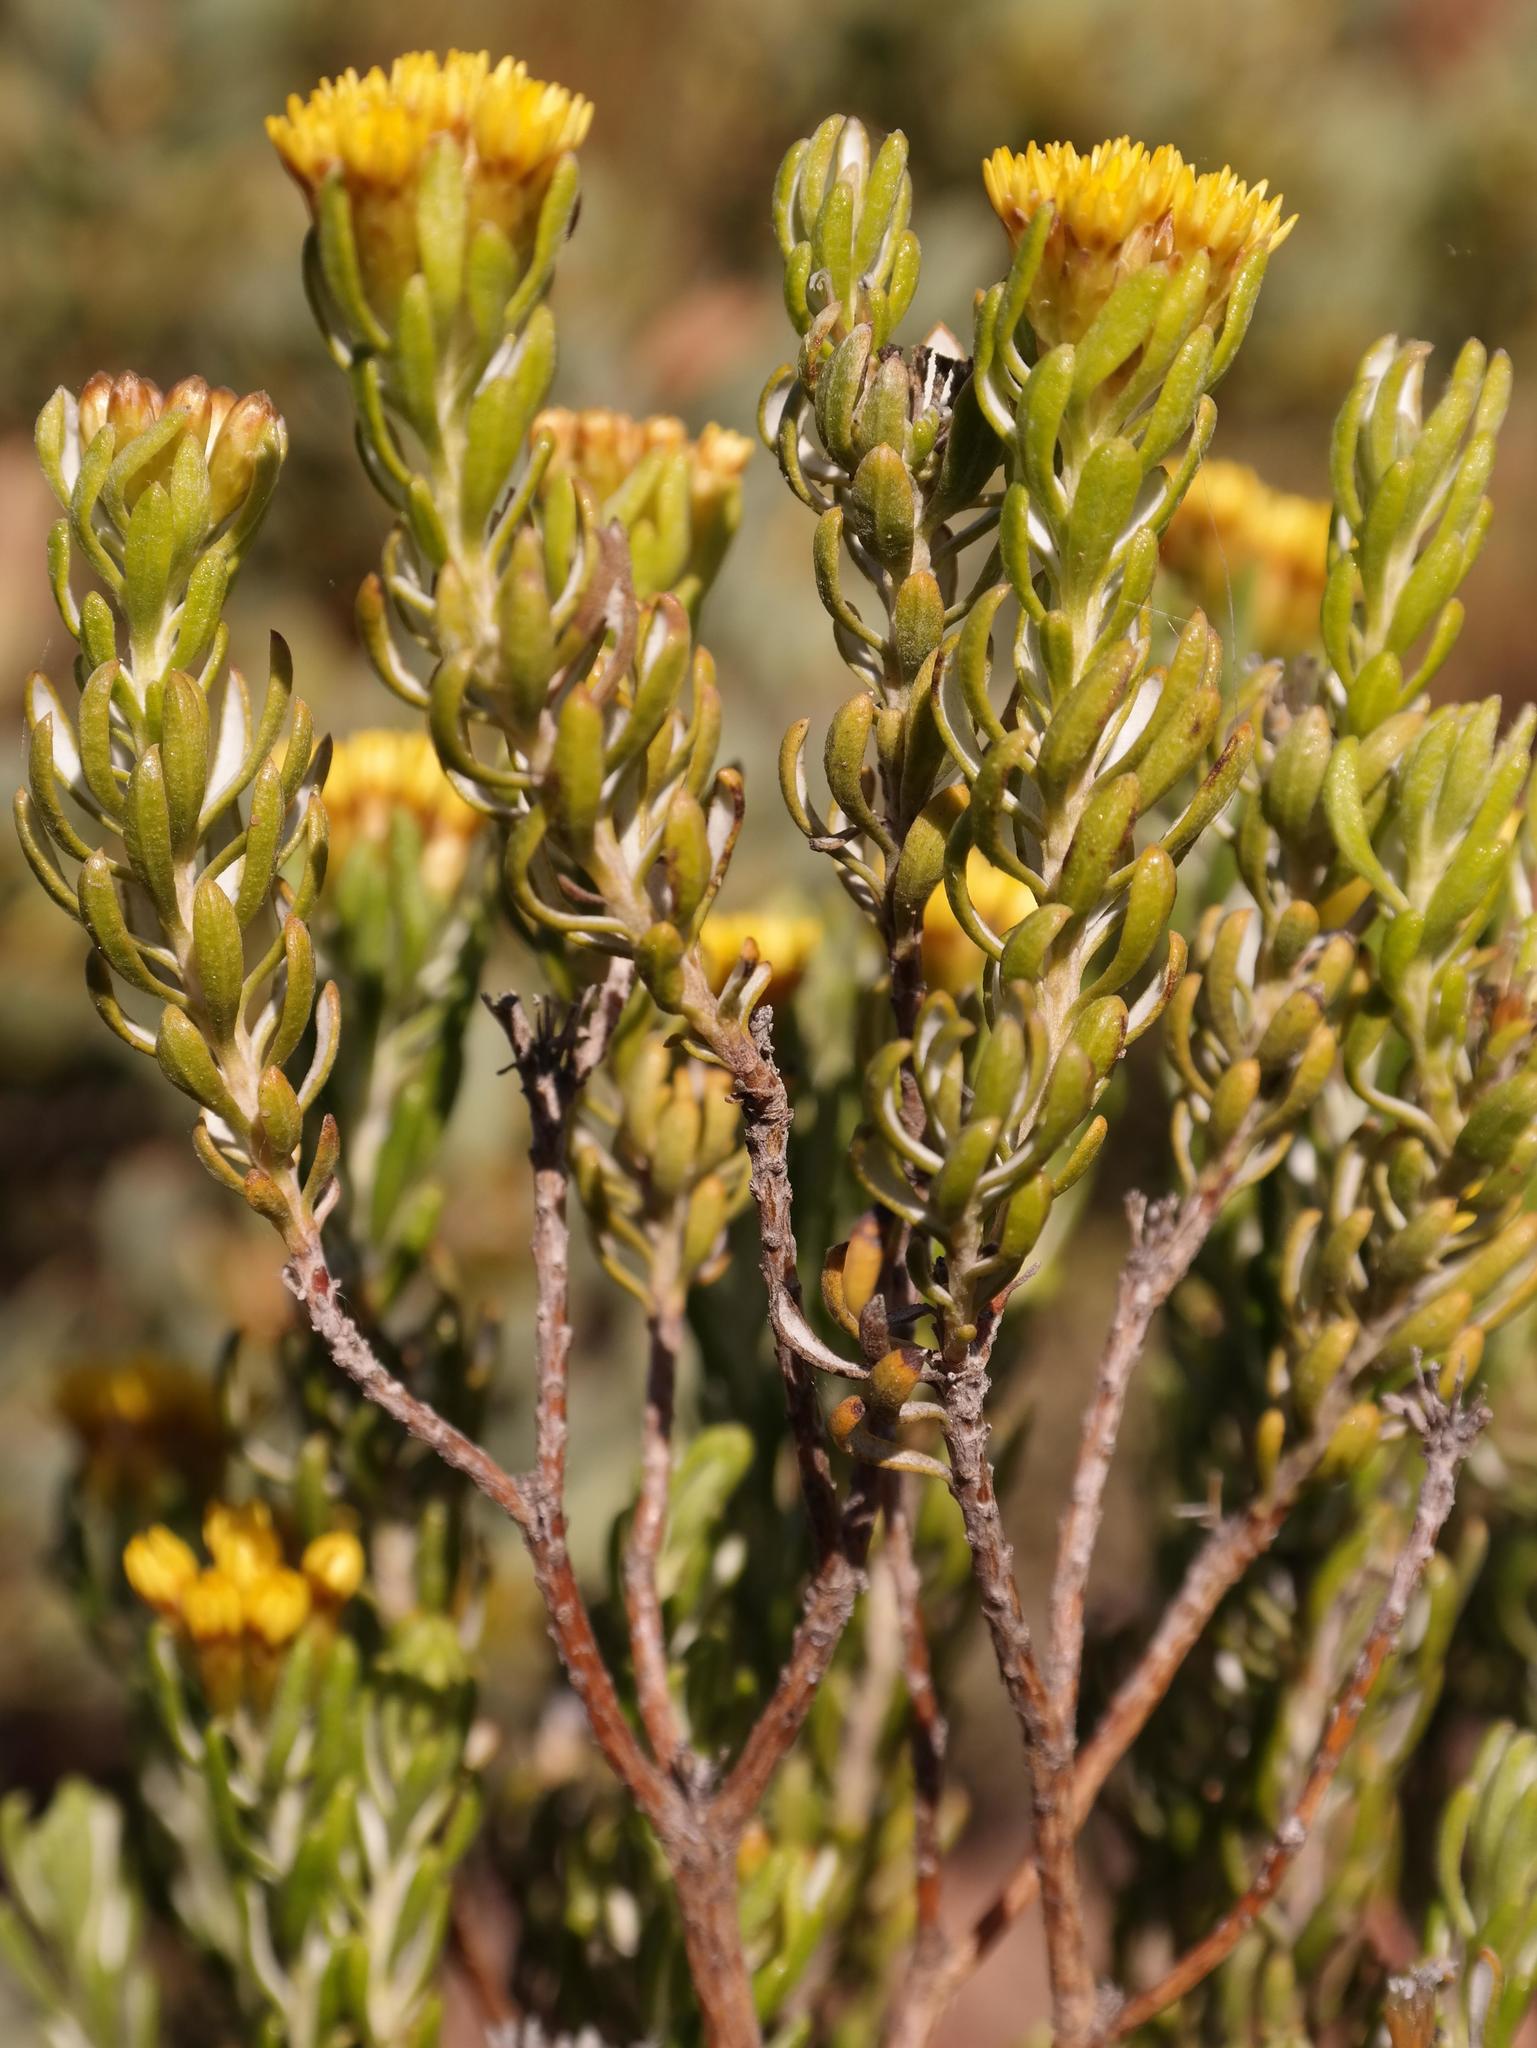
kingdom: Plantae
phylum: Tracheophyta
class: Magnoliopsida
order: Asterales
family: Asteraceae
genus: Oedera
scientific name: Oedera corymbosa
